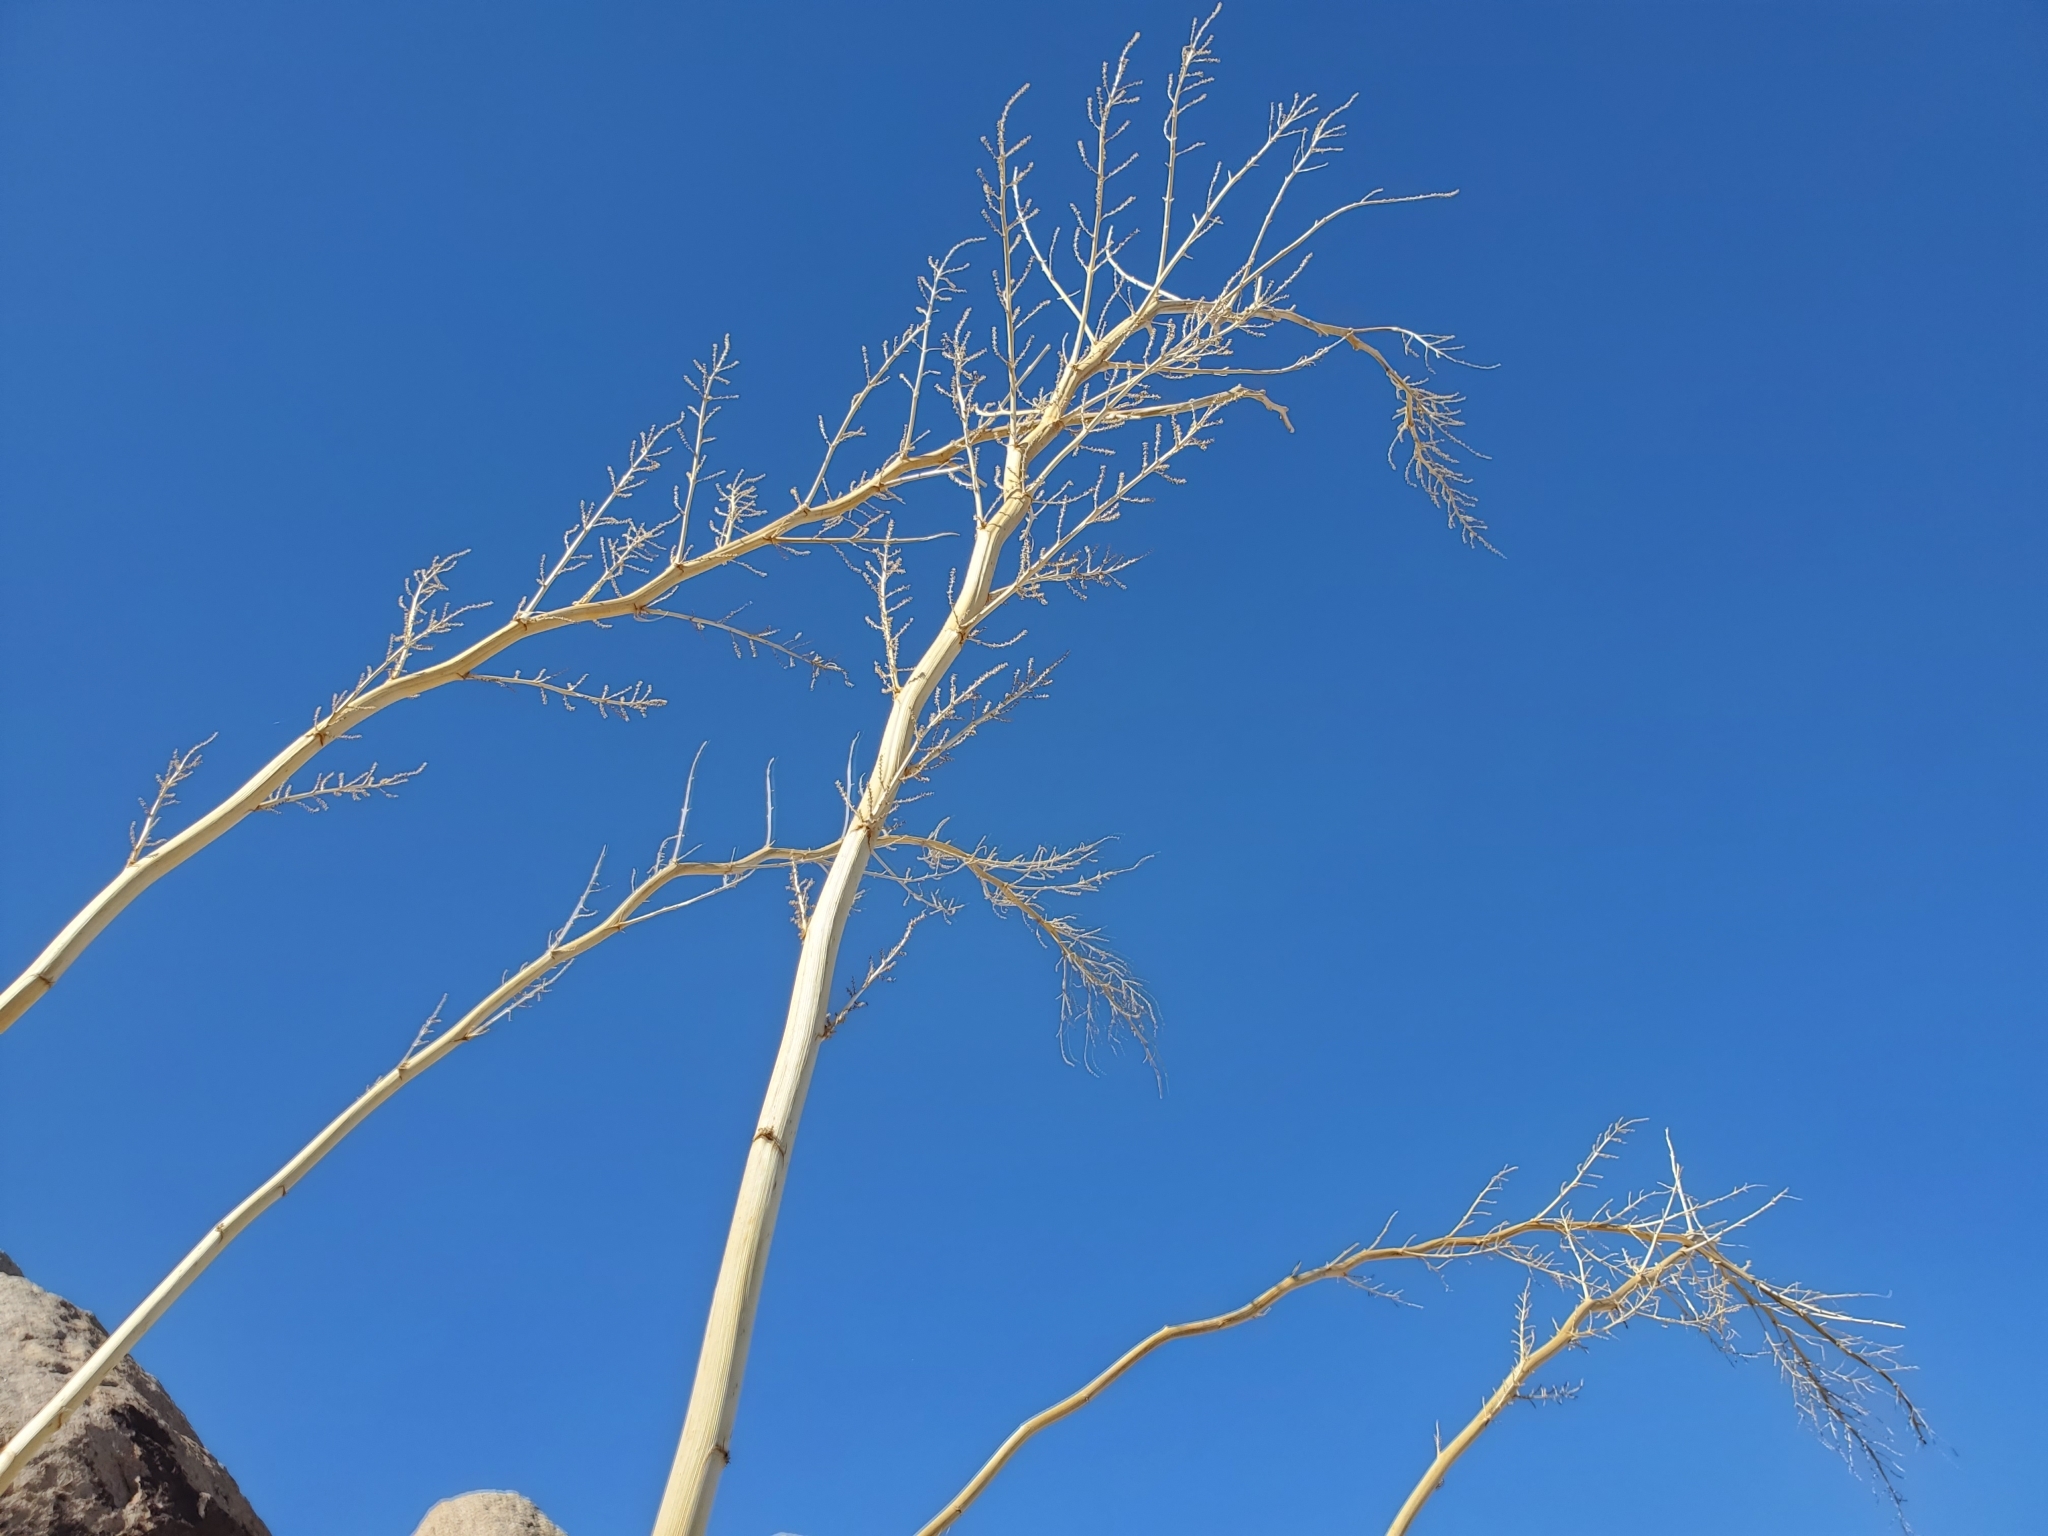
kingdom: Plantae
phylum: Tracheophyta
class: Liliopsida
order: Asparagales
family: Asparagaceae
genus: Nolina
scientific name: Nolina bigelovii
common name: Bigelow bear-grass
